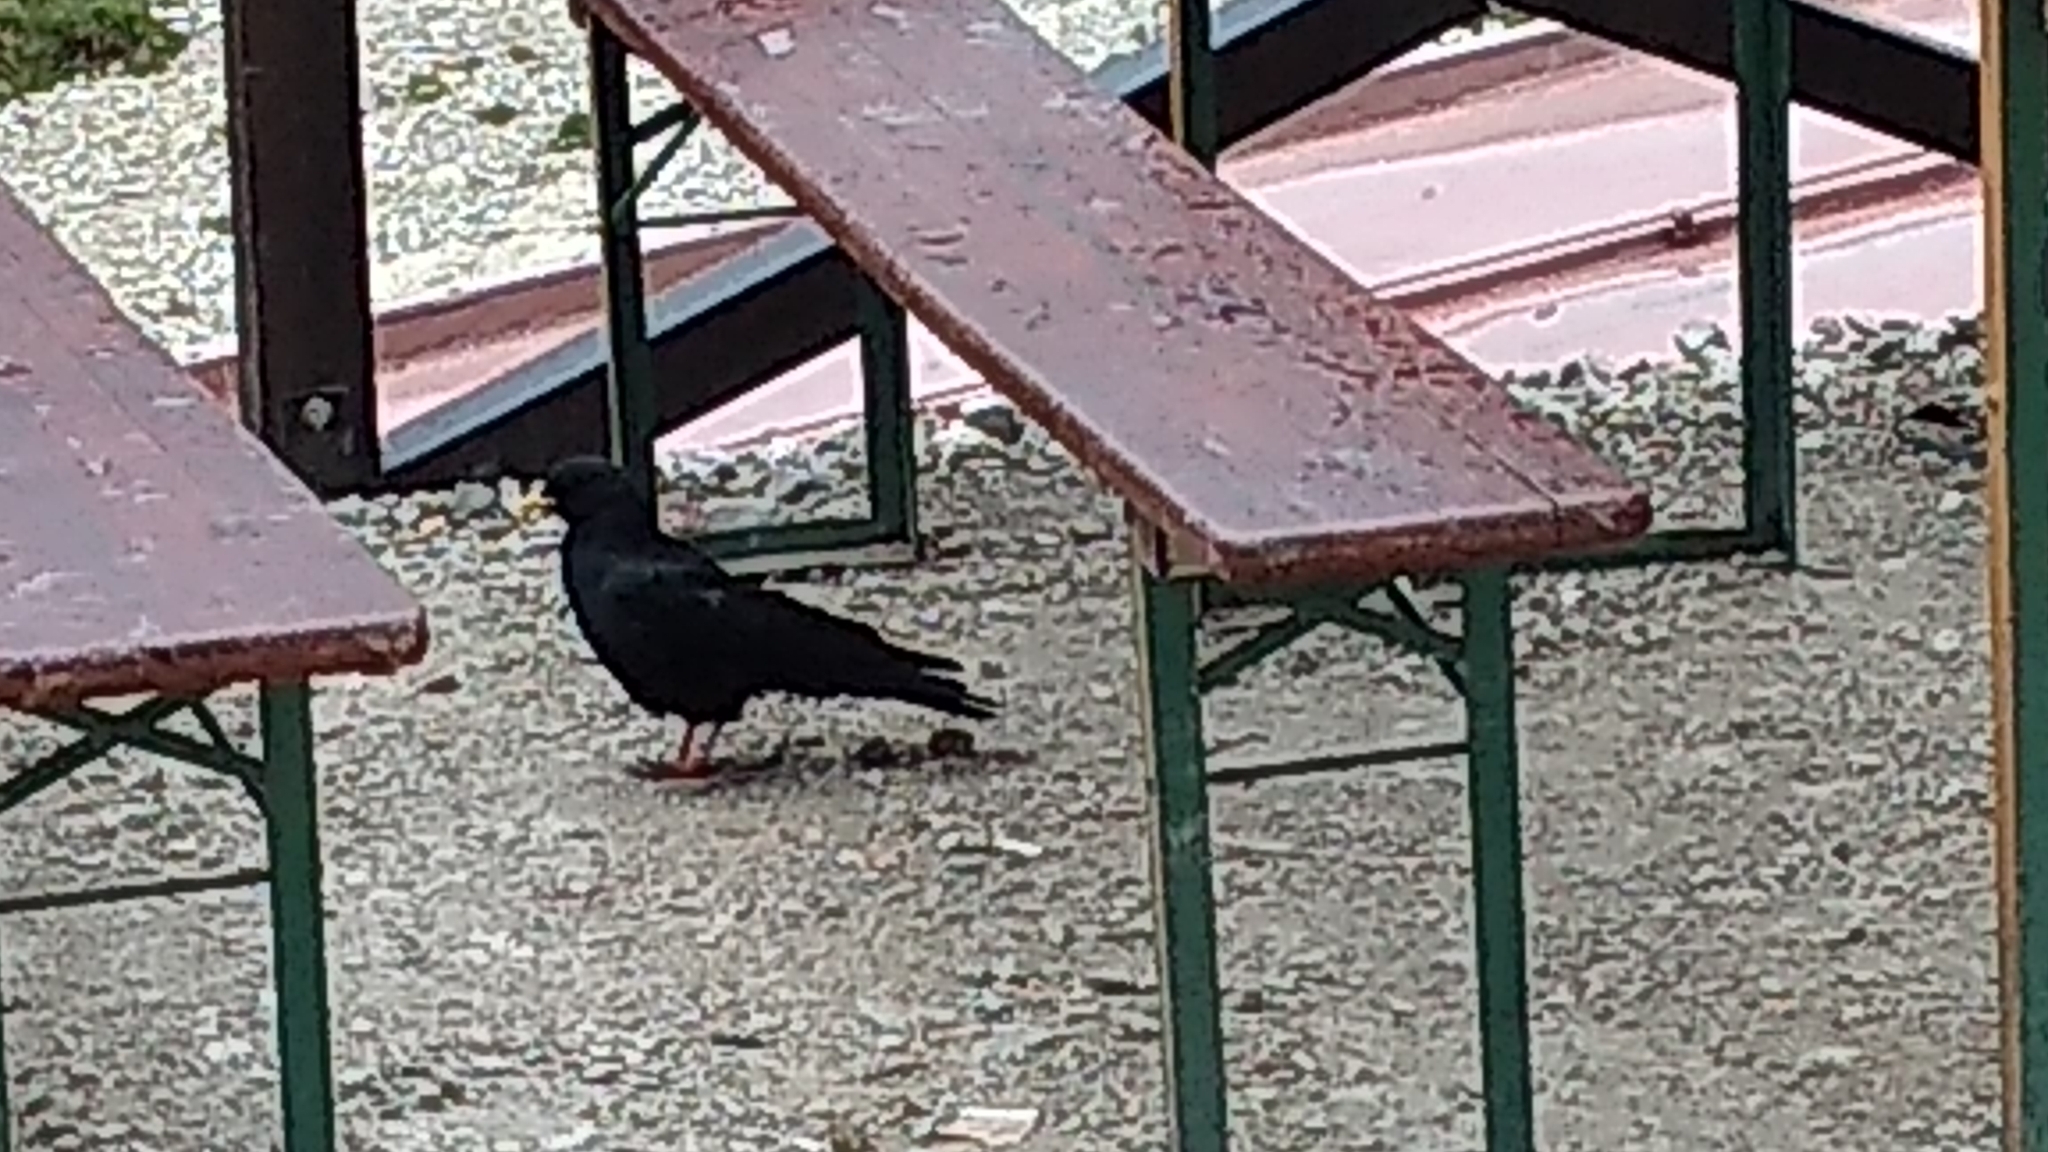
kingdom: Animalia
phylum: Chordata
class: Aves
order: Passeriformes
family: Corvidae
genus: Pyrrhocorax
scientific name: Pyrrhocorax graculus
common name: Alpine chough
